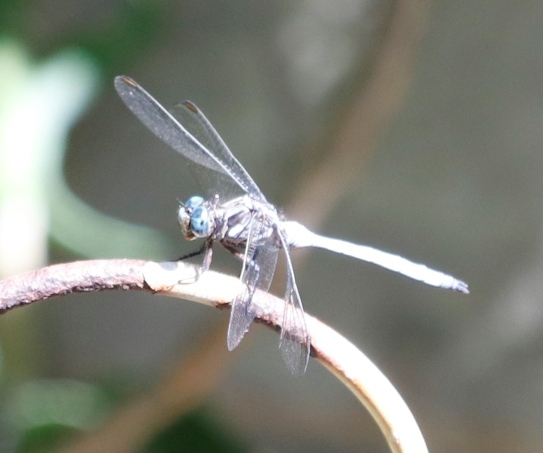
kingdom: Animalia
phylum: Arthropoda
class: Insecta
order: Odonata
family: Libellulidae
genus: Orthetrum
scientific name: Orthetrum julia
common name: Julia skimmer
